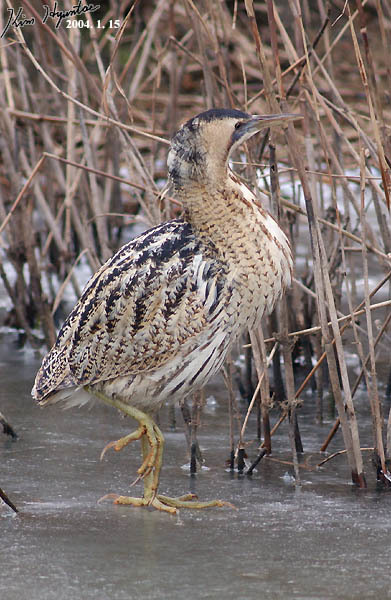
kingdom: Animalia
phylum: Chordata
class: Aves
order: Pelecaniformes
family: Ardeidae
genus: Botaurus
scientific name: Botaurus stellaris
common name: Eurasian bittern
